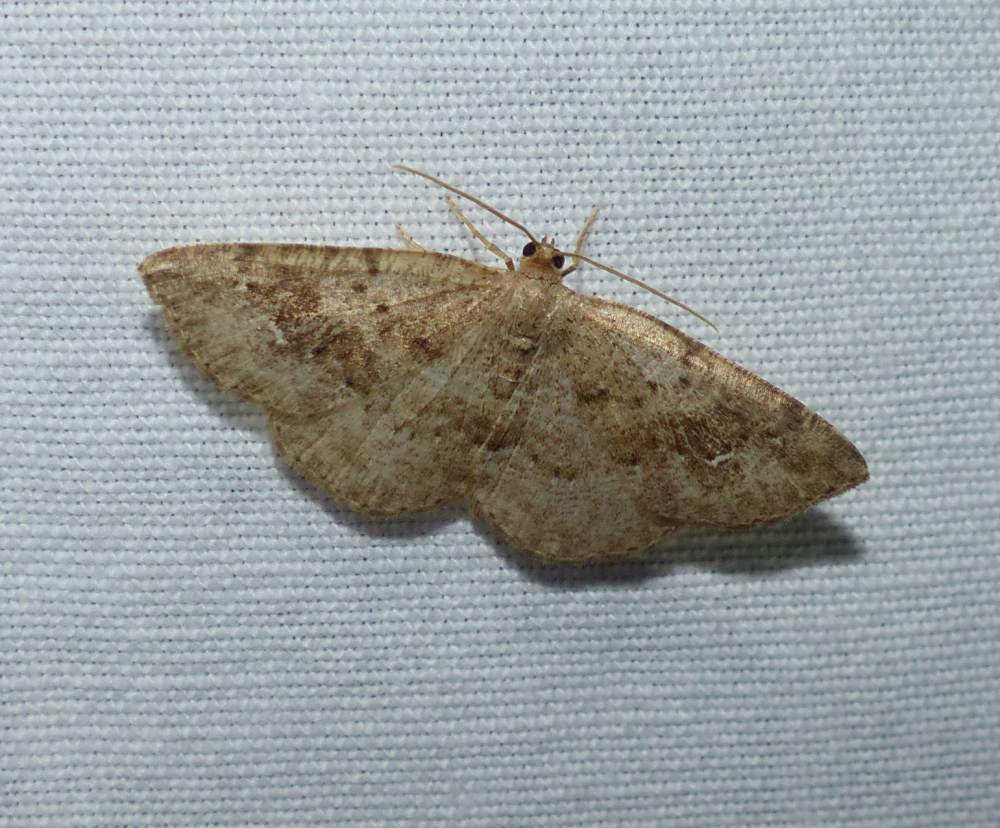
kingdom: Animalia
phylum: Arthropoda
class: Insecta
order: Lepidoptera
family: Geometridae
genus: Homochlodes
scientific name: Homochlodes fritillaria
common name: Pale homochlodes
